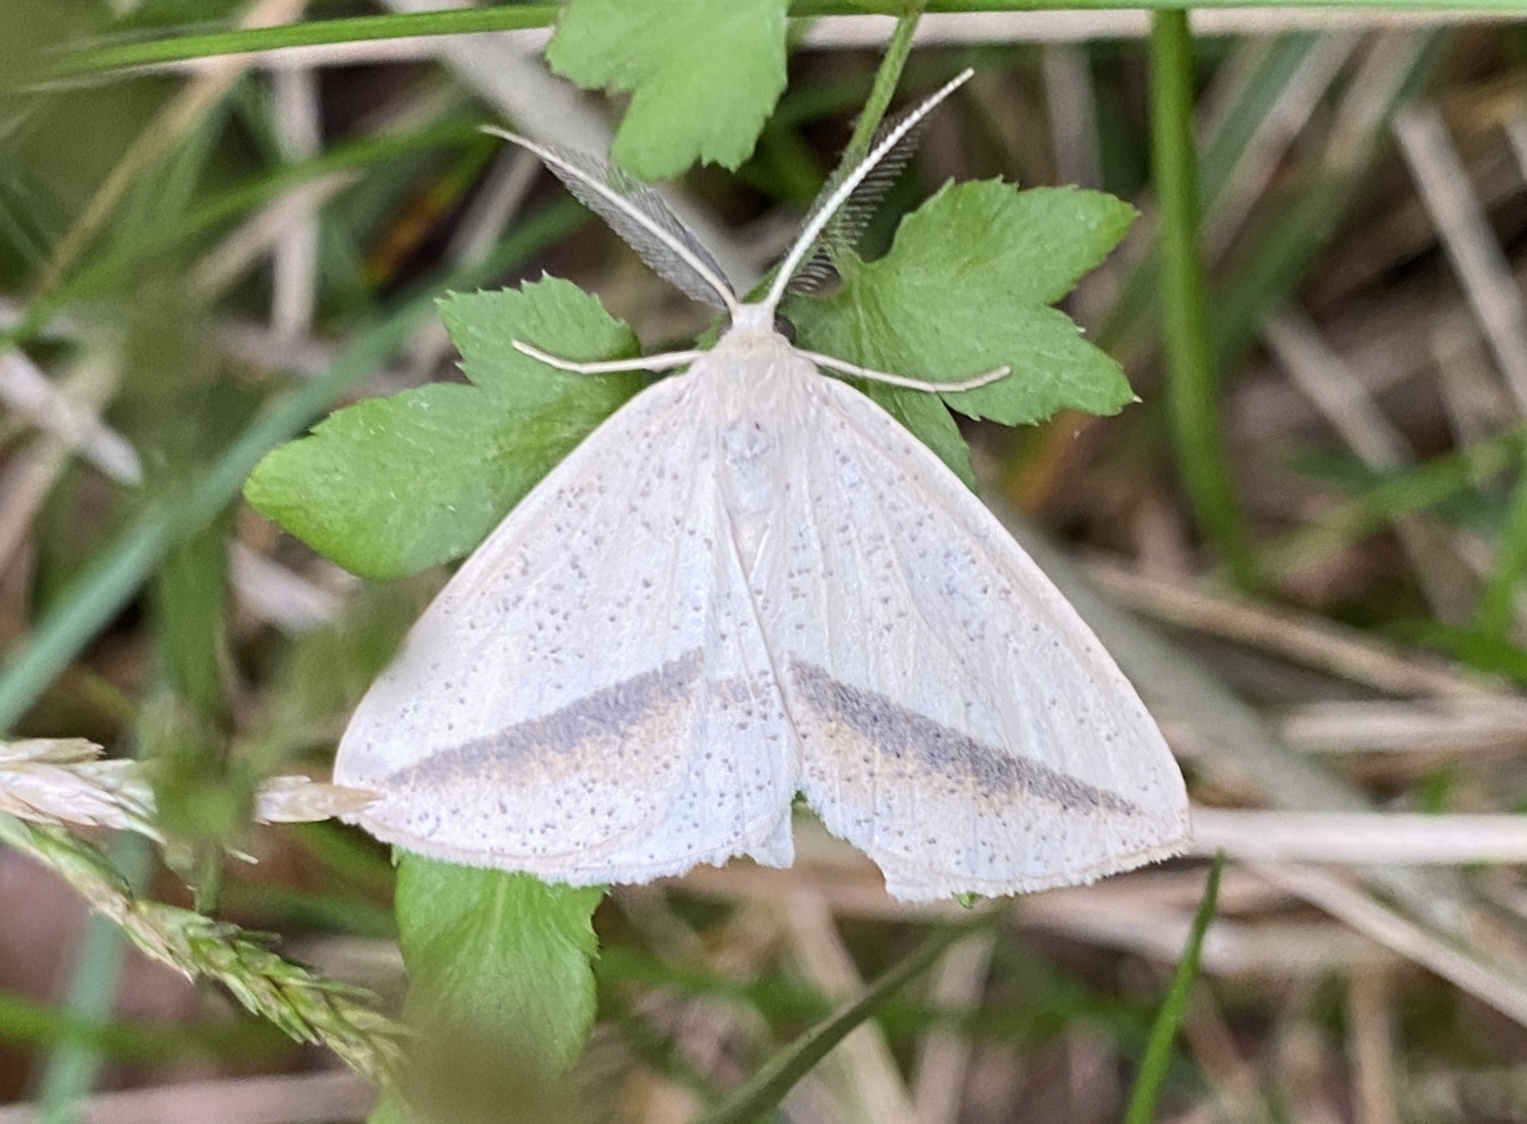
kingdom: Animalia
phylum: Arthropoda
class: Insecta
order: Lepidoptera
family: Geometridae
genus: Lychnosea
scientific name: Lychnosea intermicata
